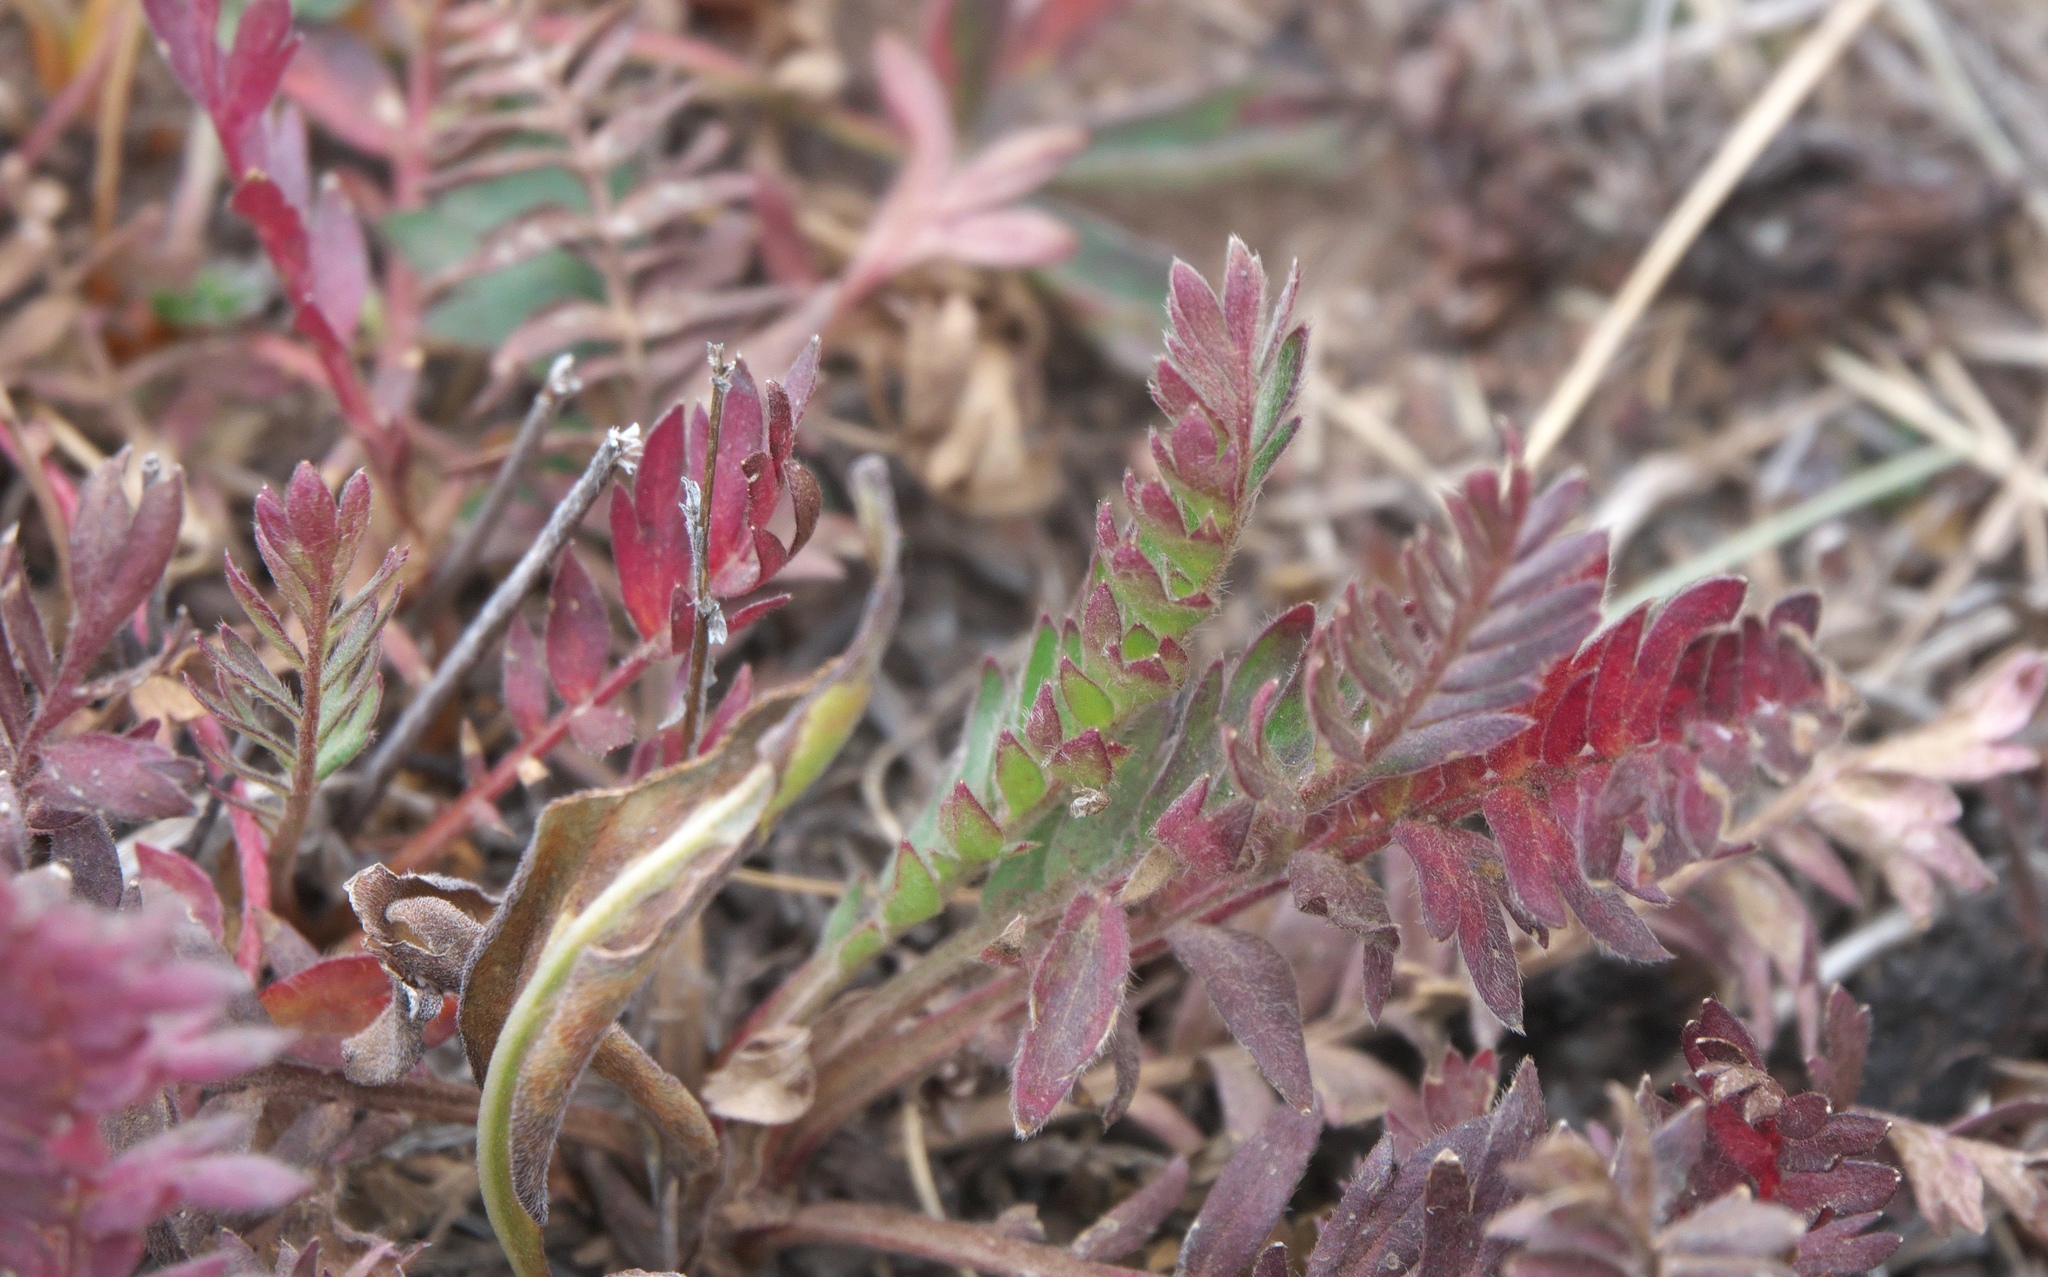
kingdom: Plantae
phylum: Tracheophyta
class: Magnoliopsida
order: Rosales
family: Rosaceae
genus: Geum
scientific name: Geum rossii
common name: Alpine avens
